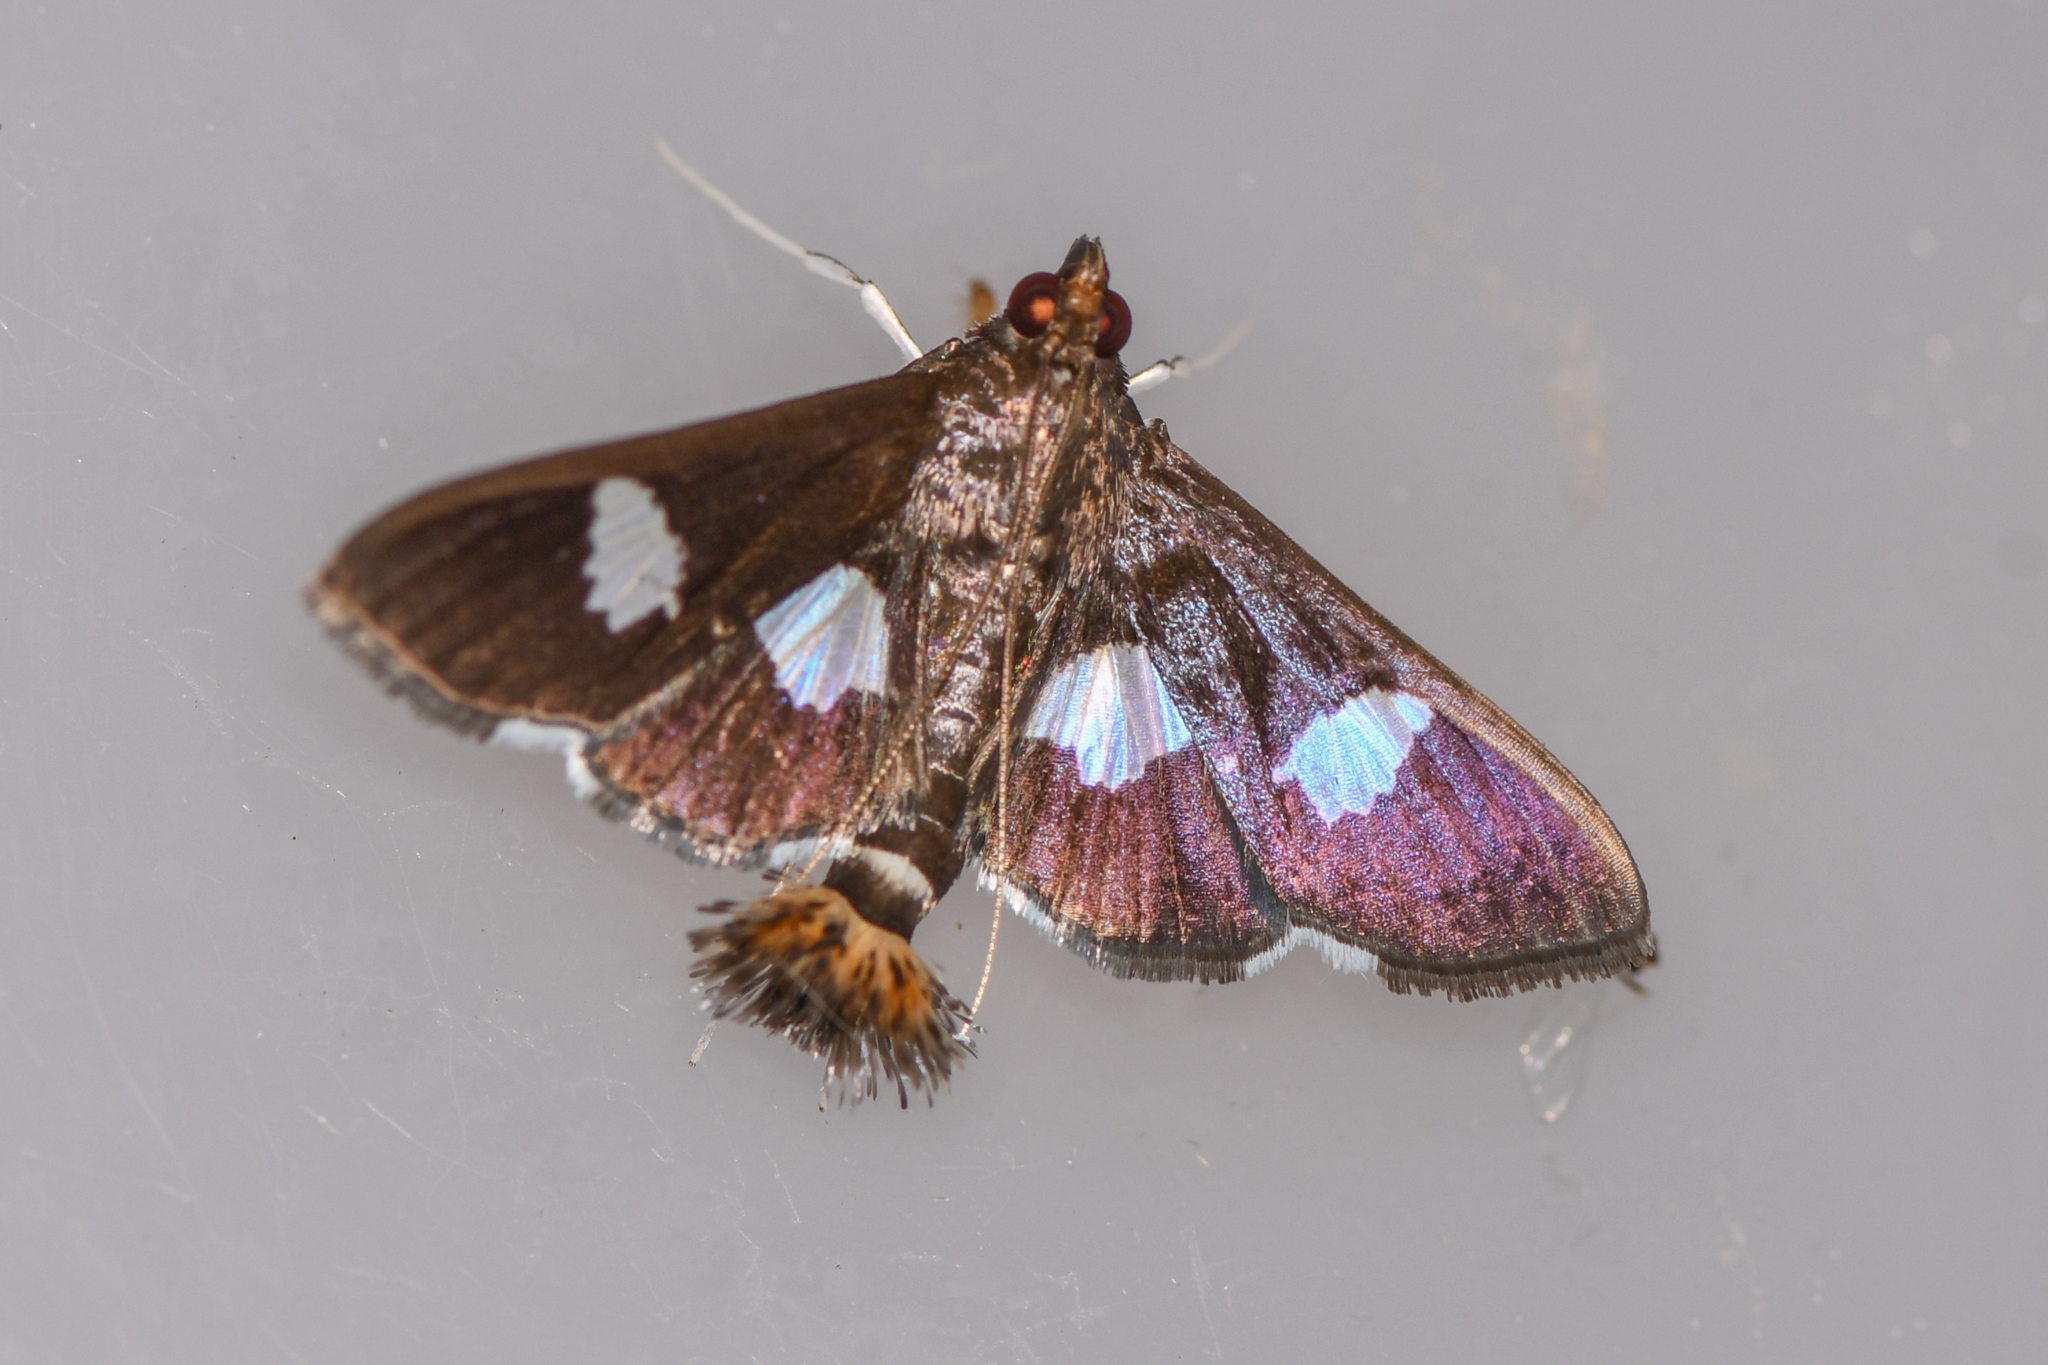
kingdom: Animalia
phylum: Arthropoda
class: Insecta
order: Lepidoptera
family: Crambidae
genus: Diaphania
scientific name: Diaphania beckeri
